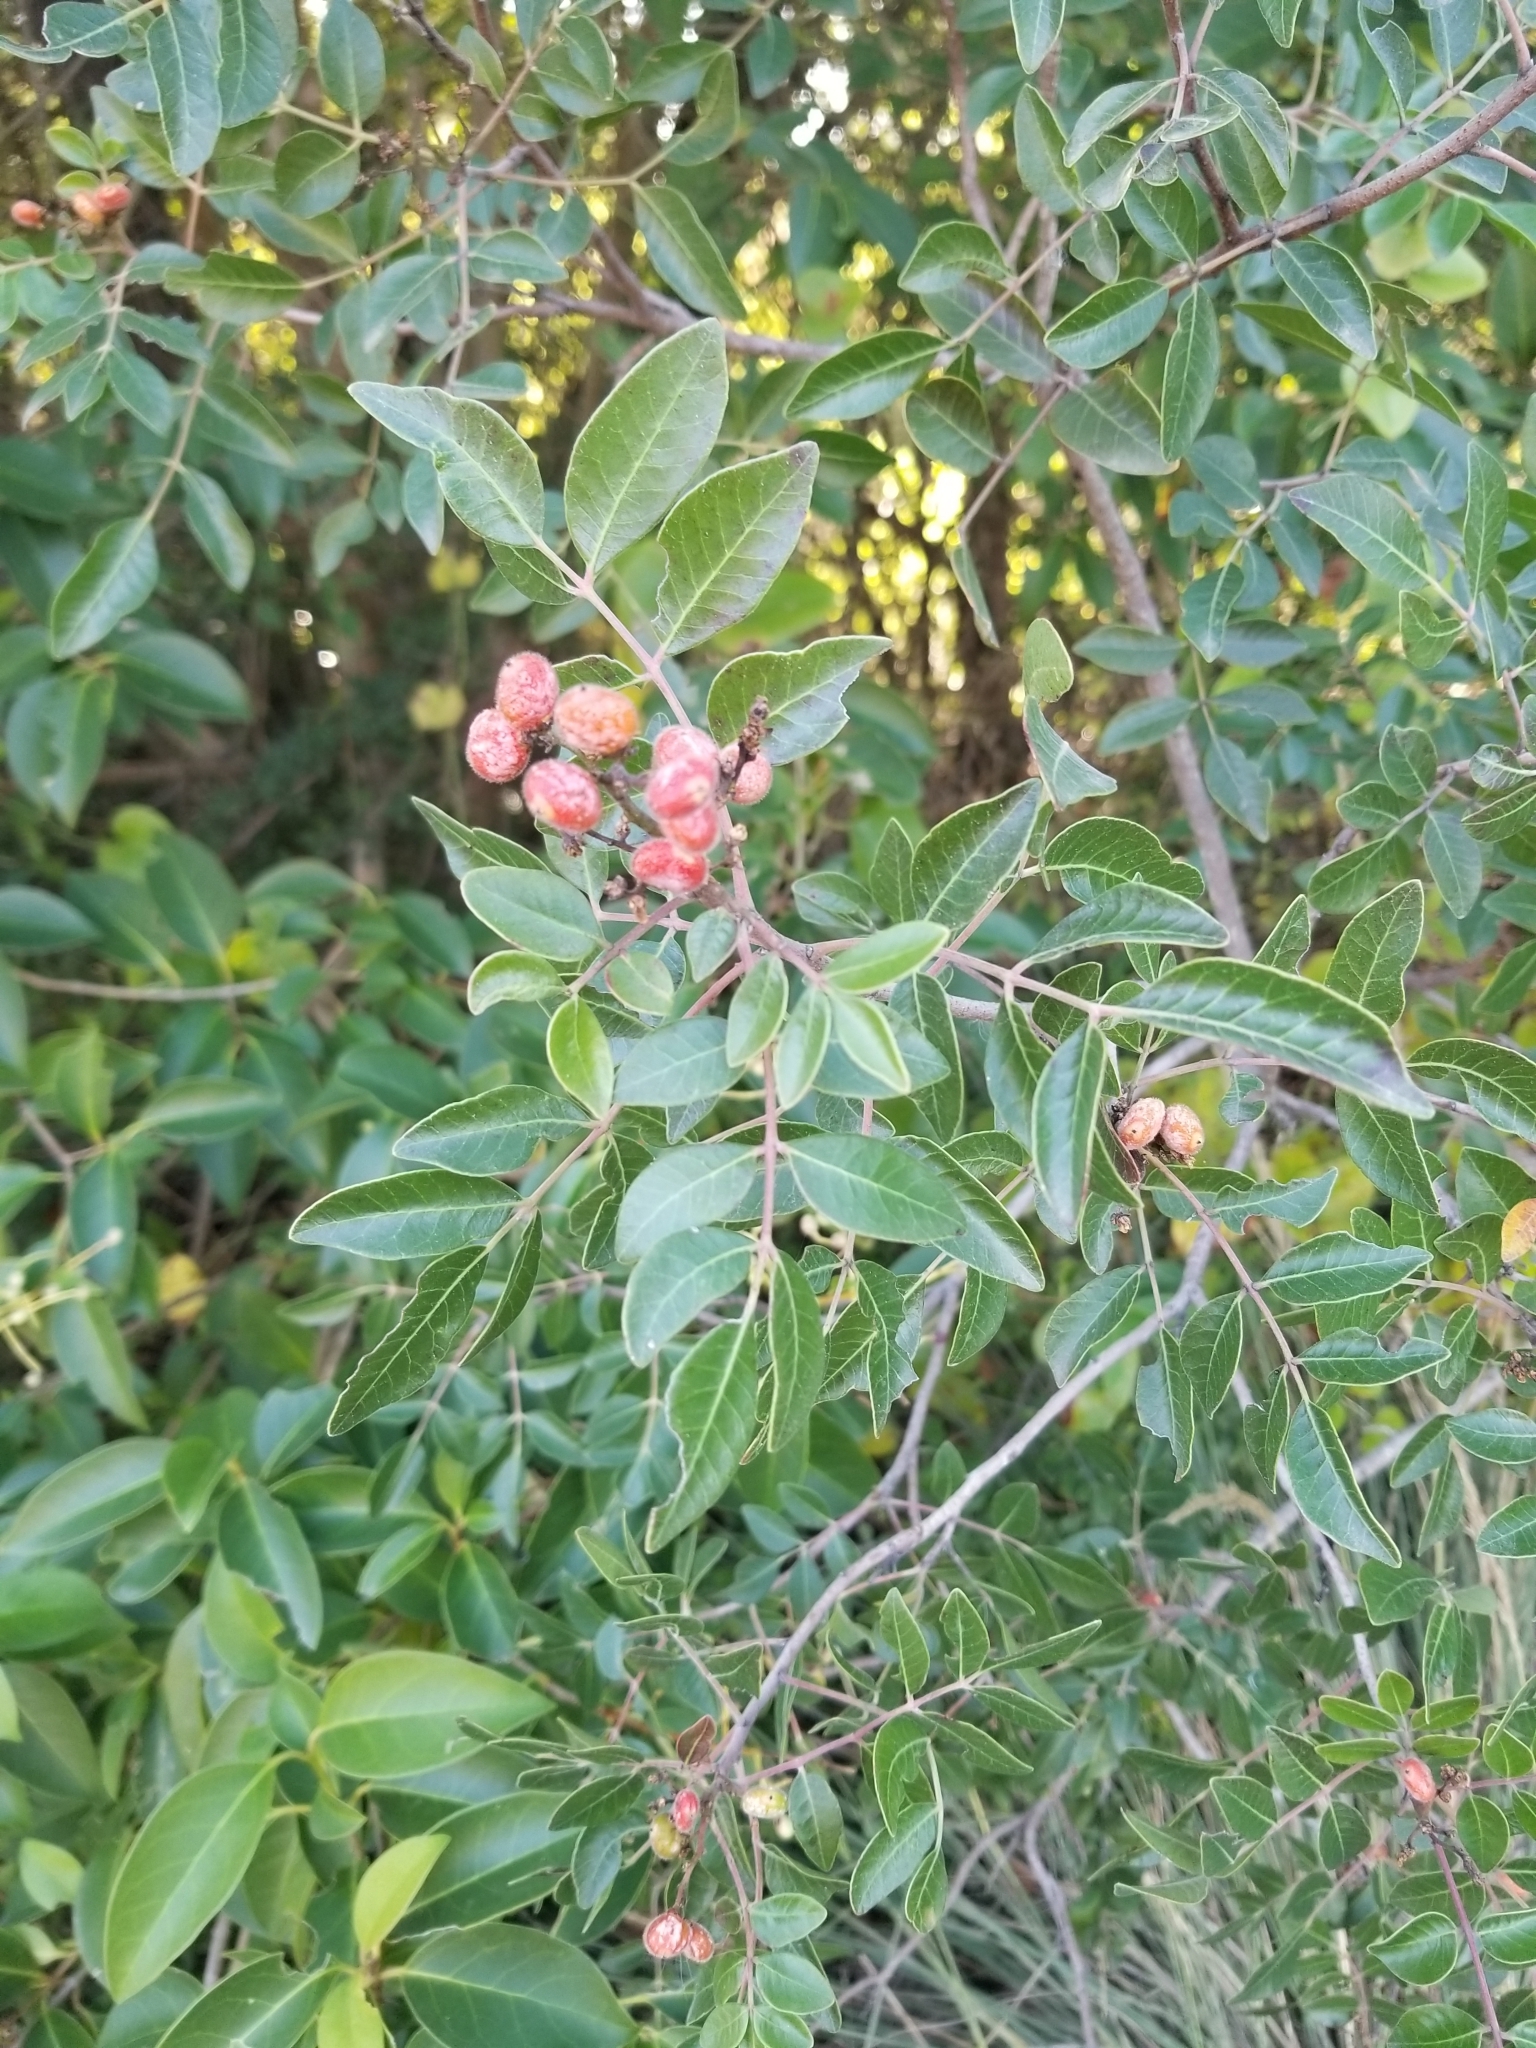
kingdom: Plantae
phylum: Tracheophyta
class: Magnoliopsida
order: Sapindales
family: Anacardiaceae
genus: Rhus
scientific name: Rhus virens
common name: Evergreen sumac
